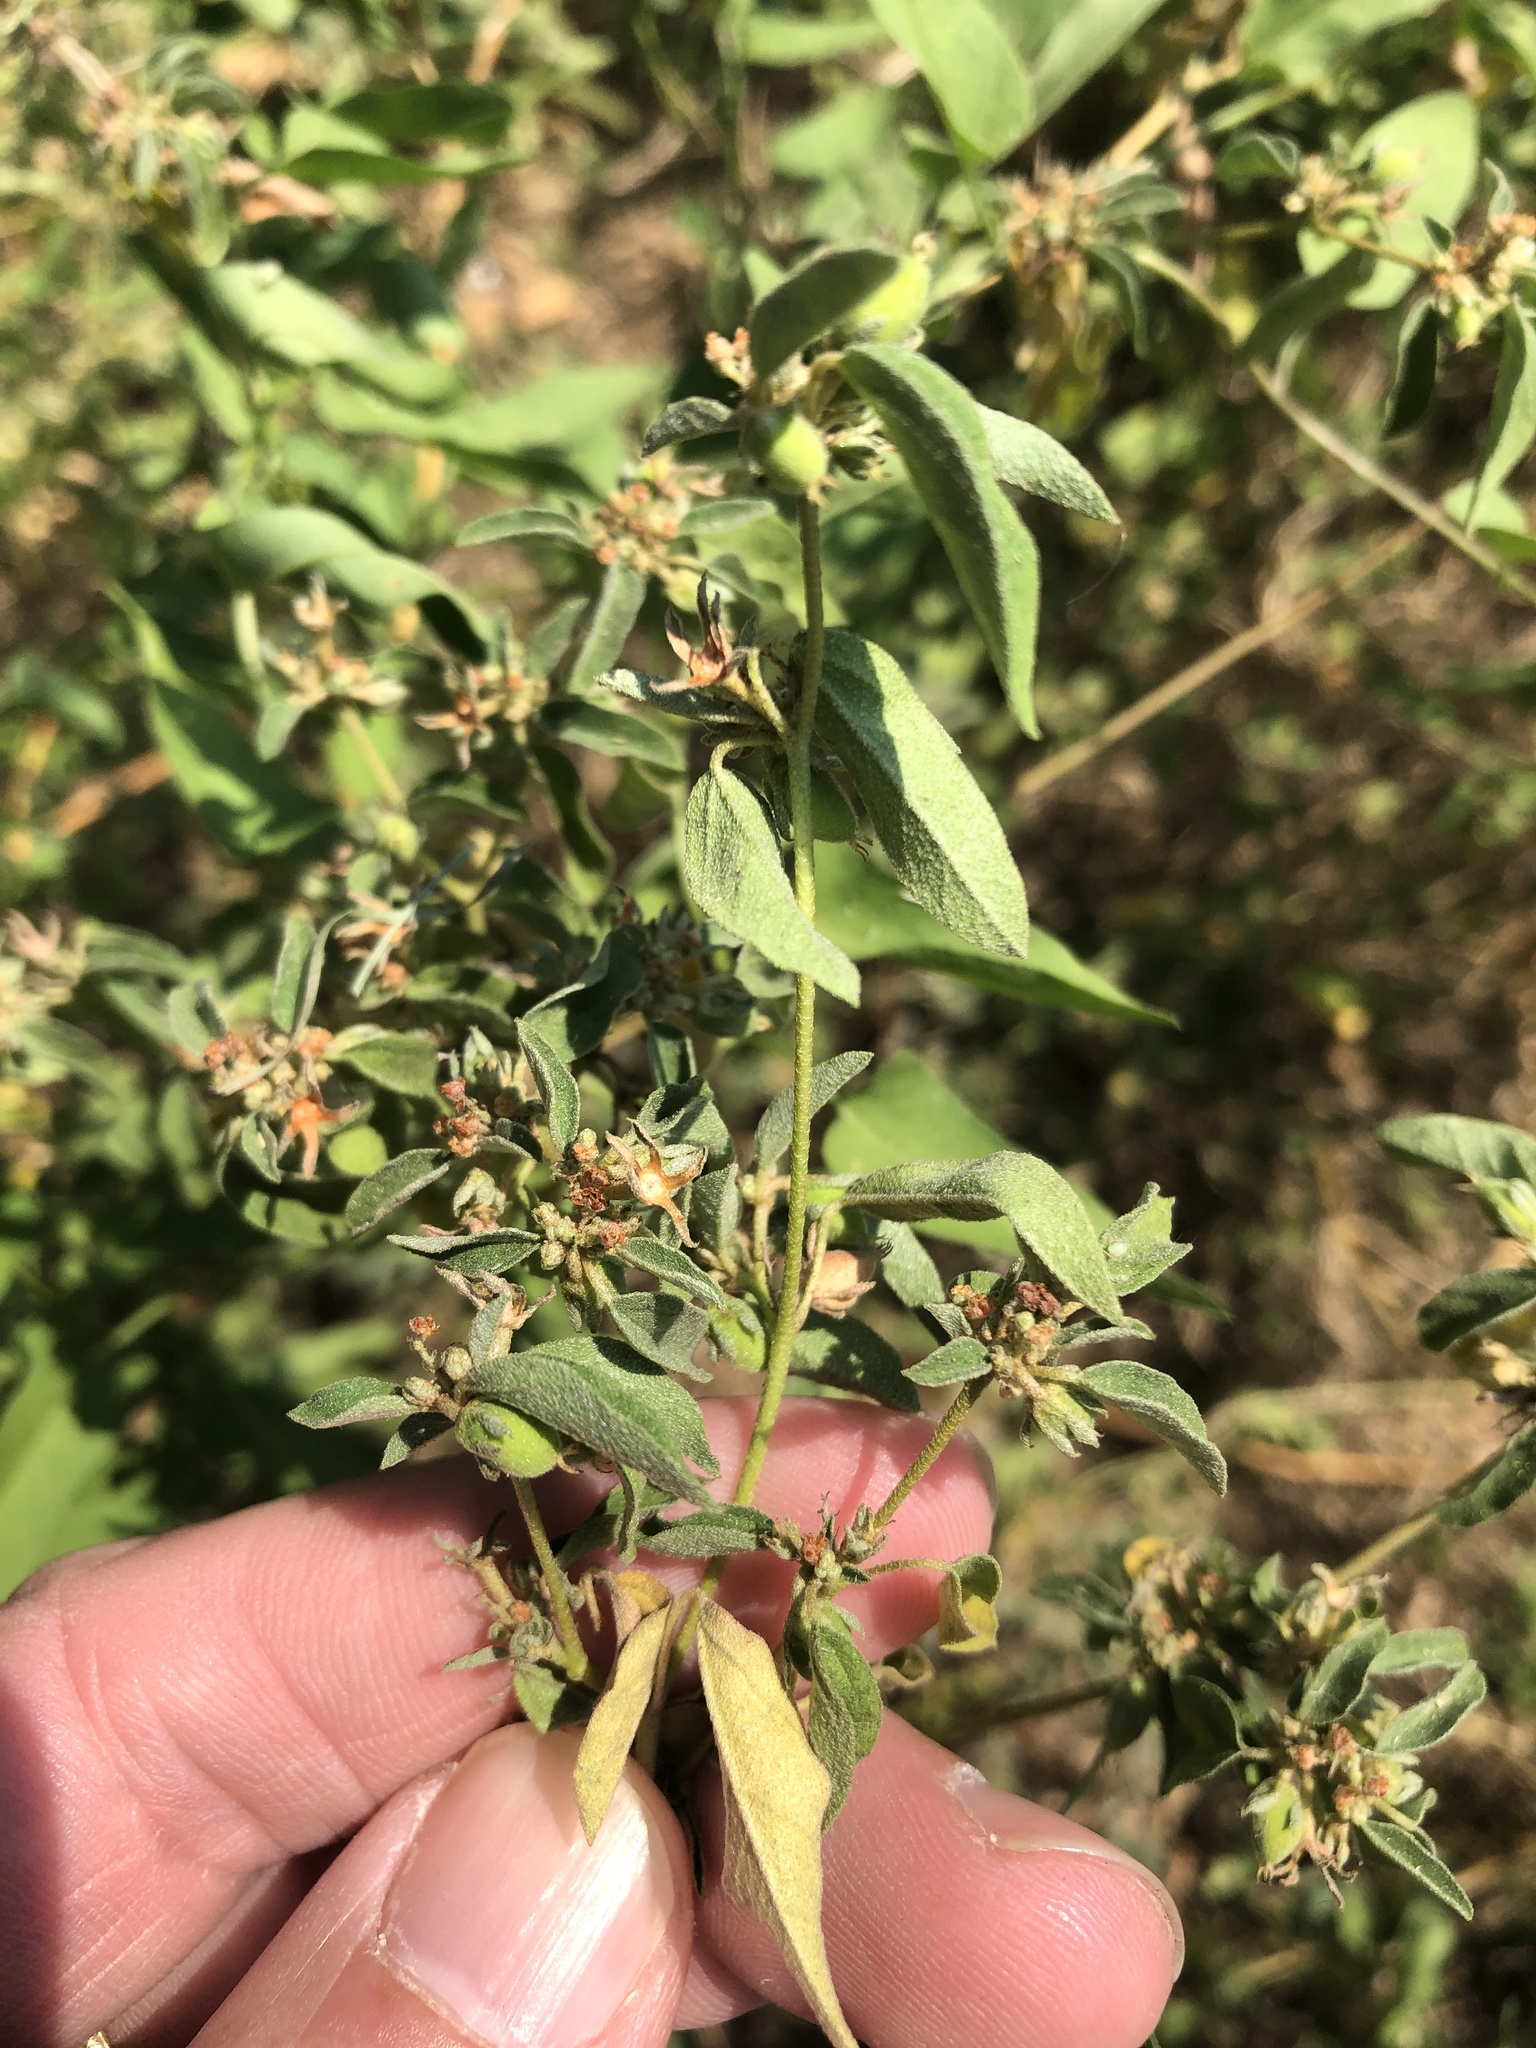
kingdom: Plantae
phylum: Tracheophyta
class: Magnoliopsida
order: Malpighiales
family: Euphorbiaceae
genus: Croton
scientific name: Croton monanthogynus
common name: One-seed croton
